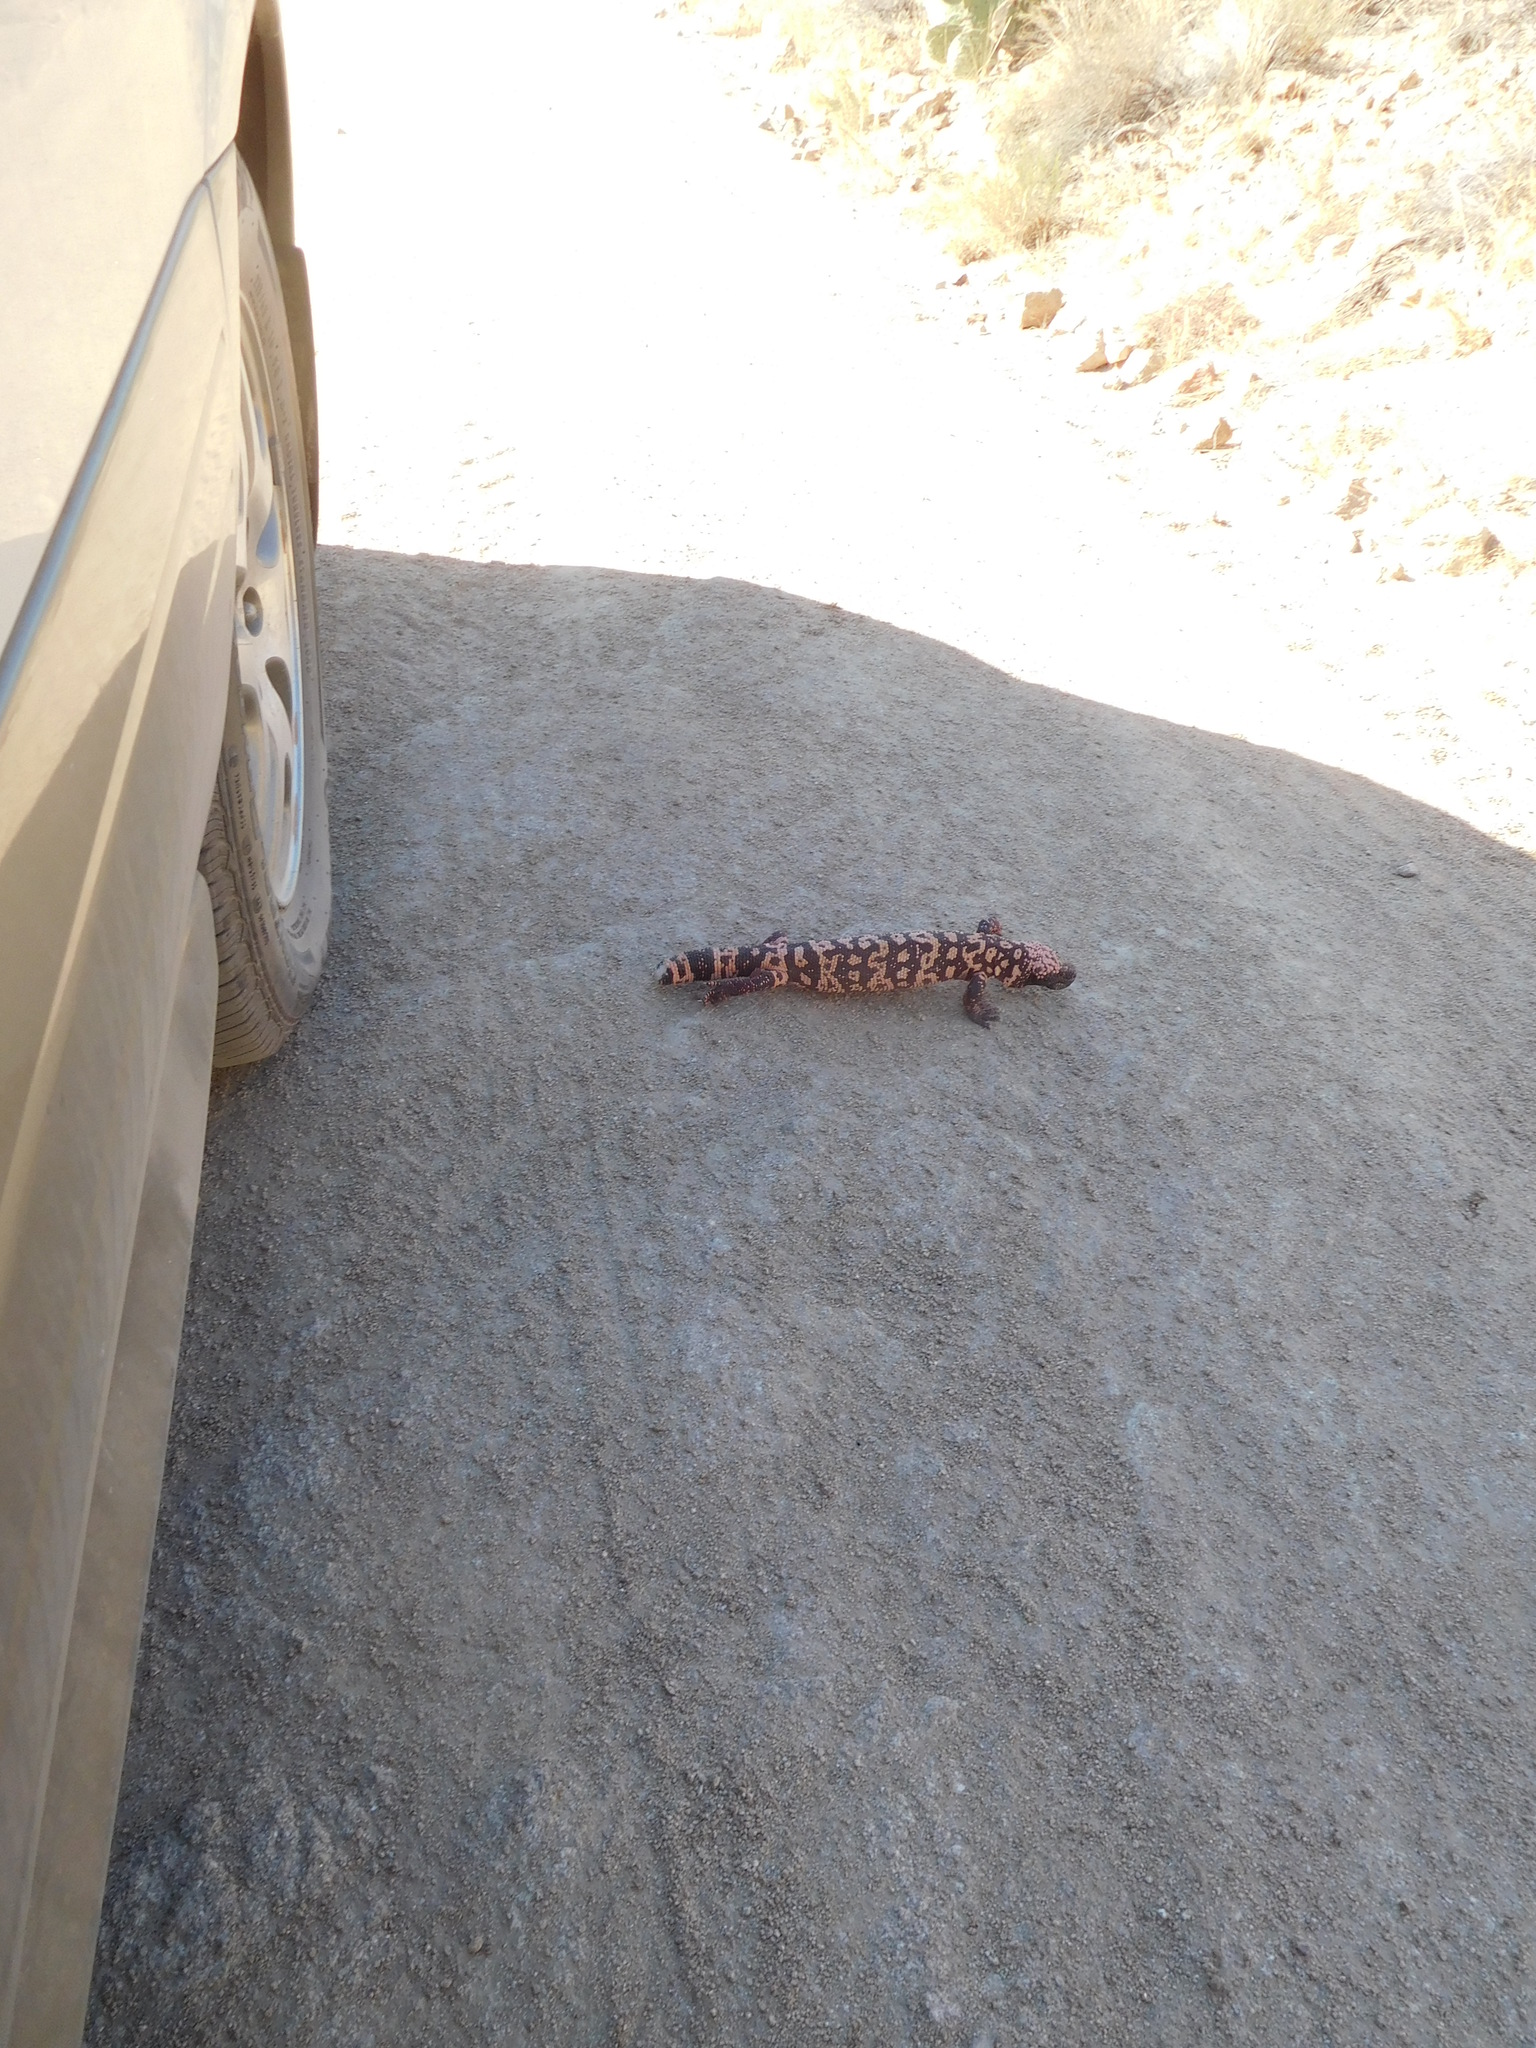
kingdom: Animalia
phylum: Chordata
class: Squamata
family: Helodermatidae
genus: Heloderma
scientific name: Heloderma suspectum
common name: Gila monster
